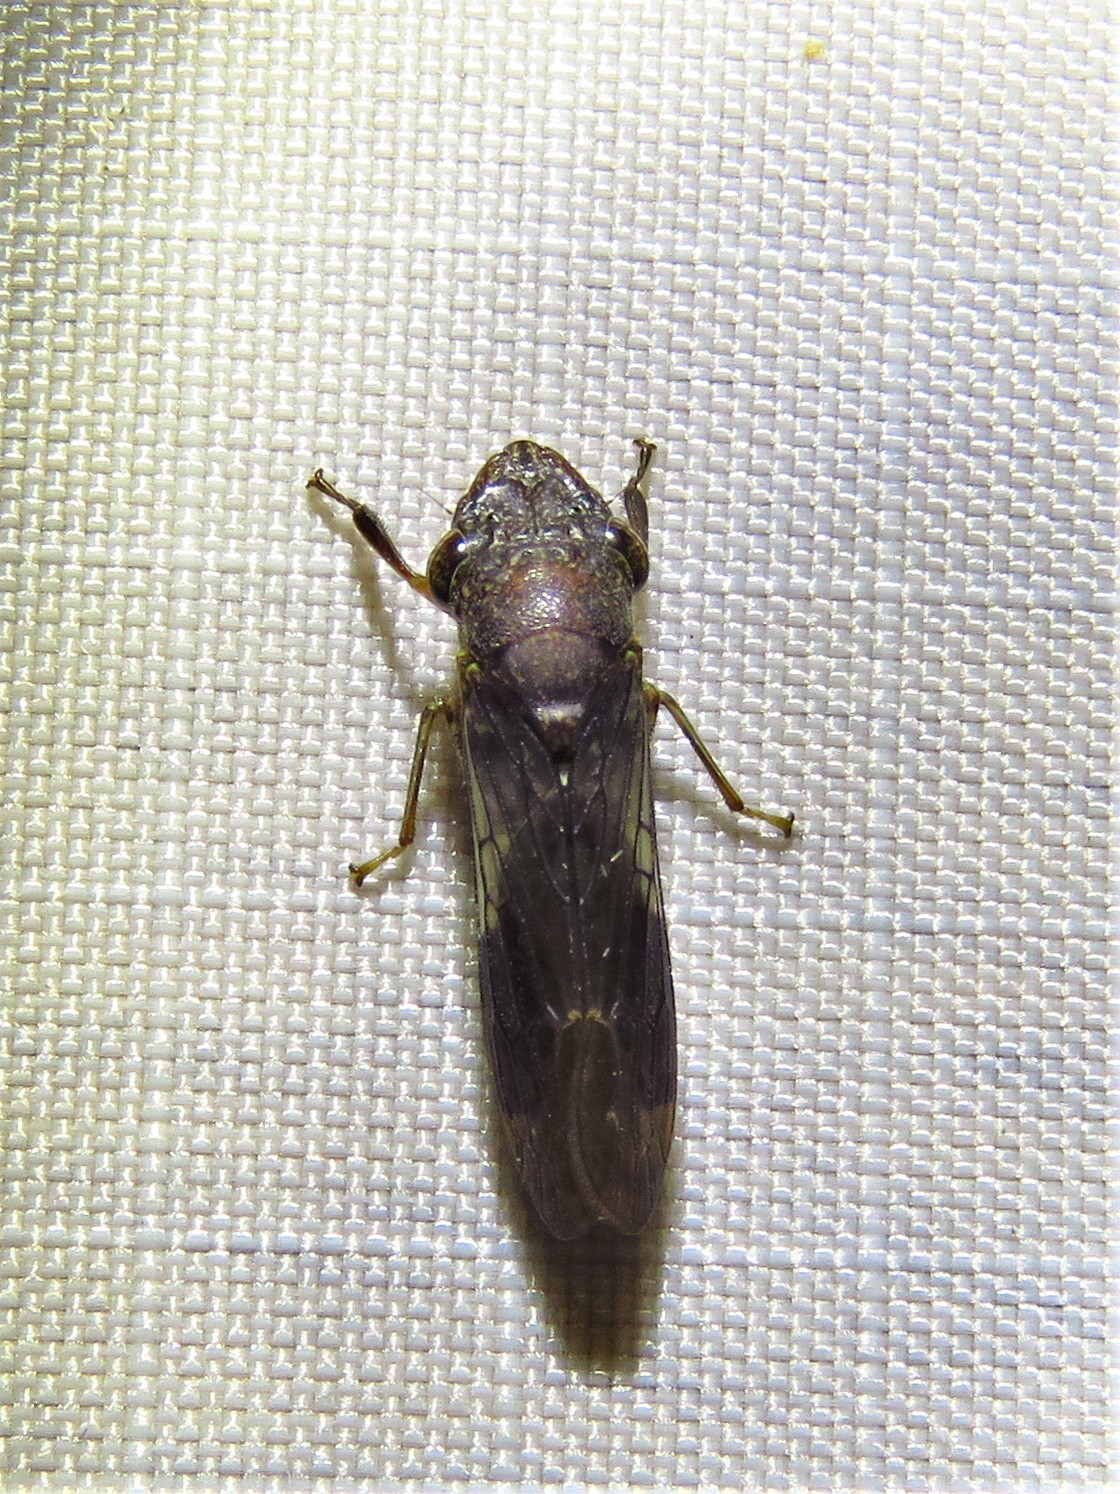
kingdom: Animalia
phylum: Arthropoda
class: Insecta
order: Hemiptera
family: Cicadellidae
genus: Homalodisca
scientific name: Homalodisca vitripennis
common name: Glassy-winged sharpshooter
